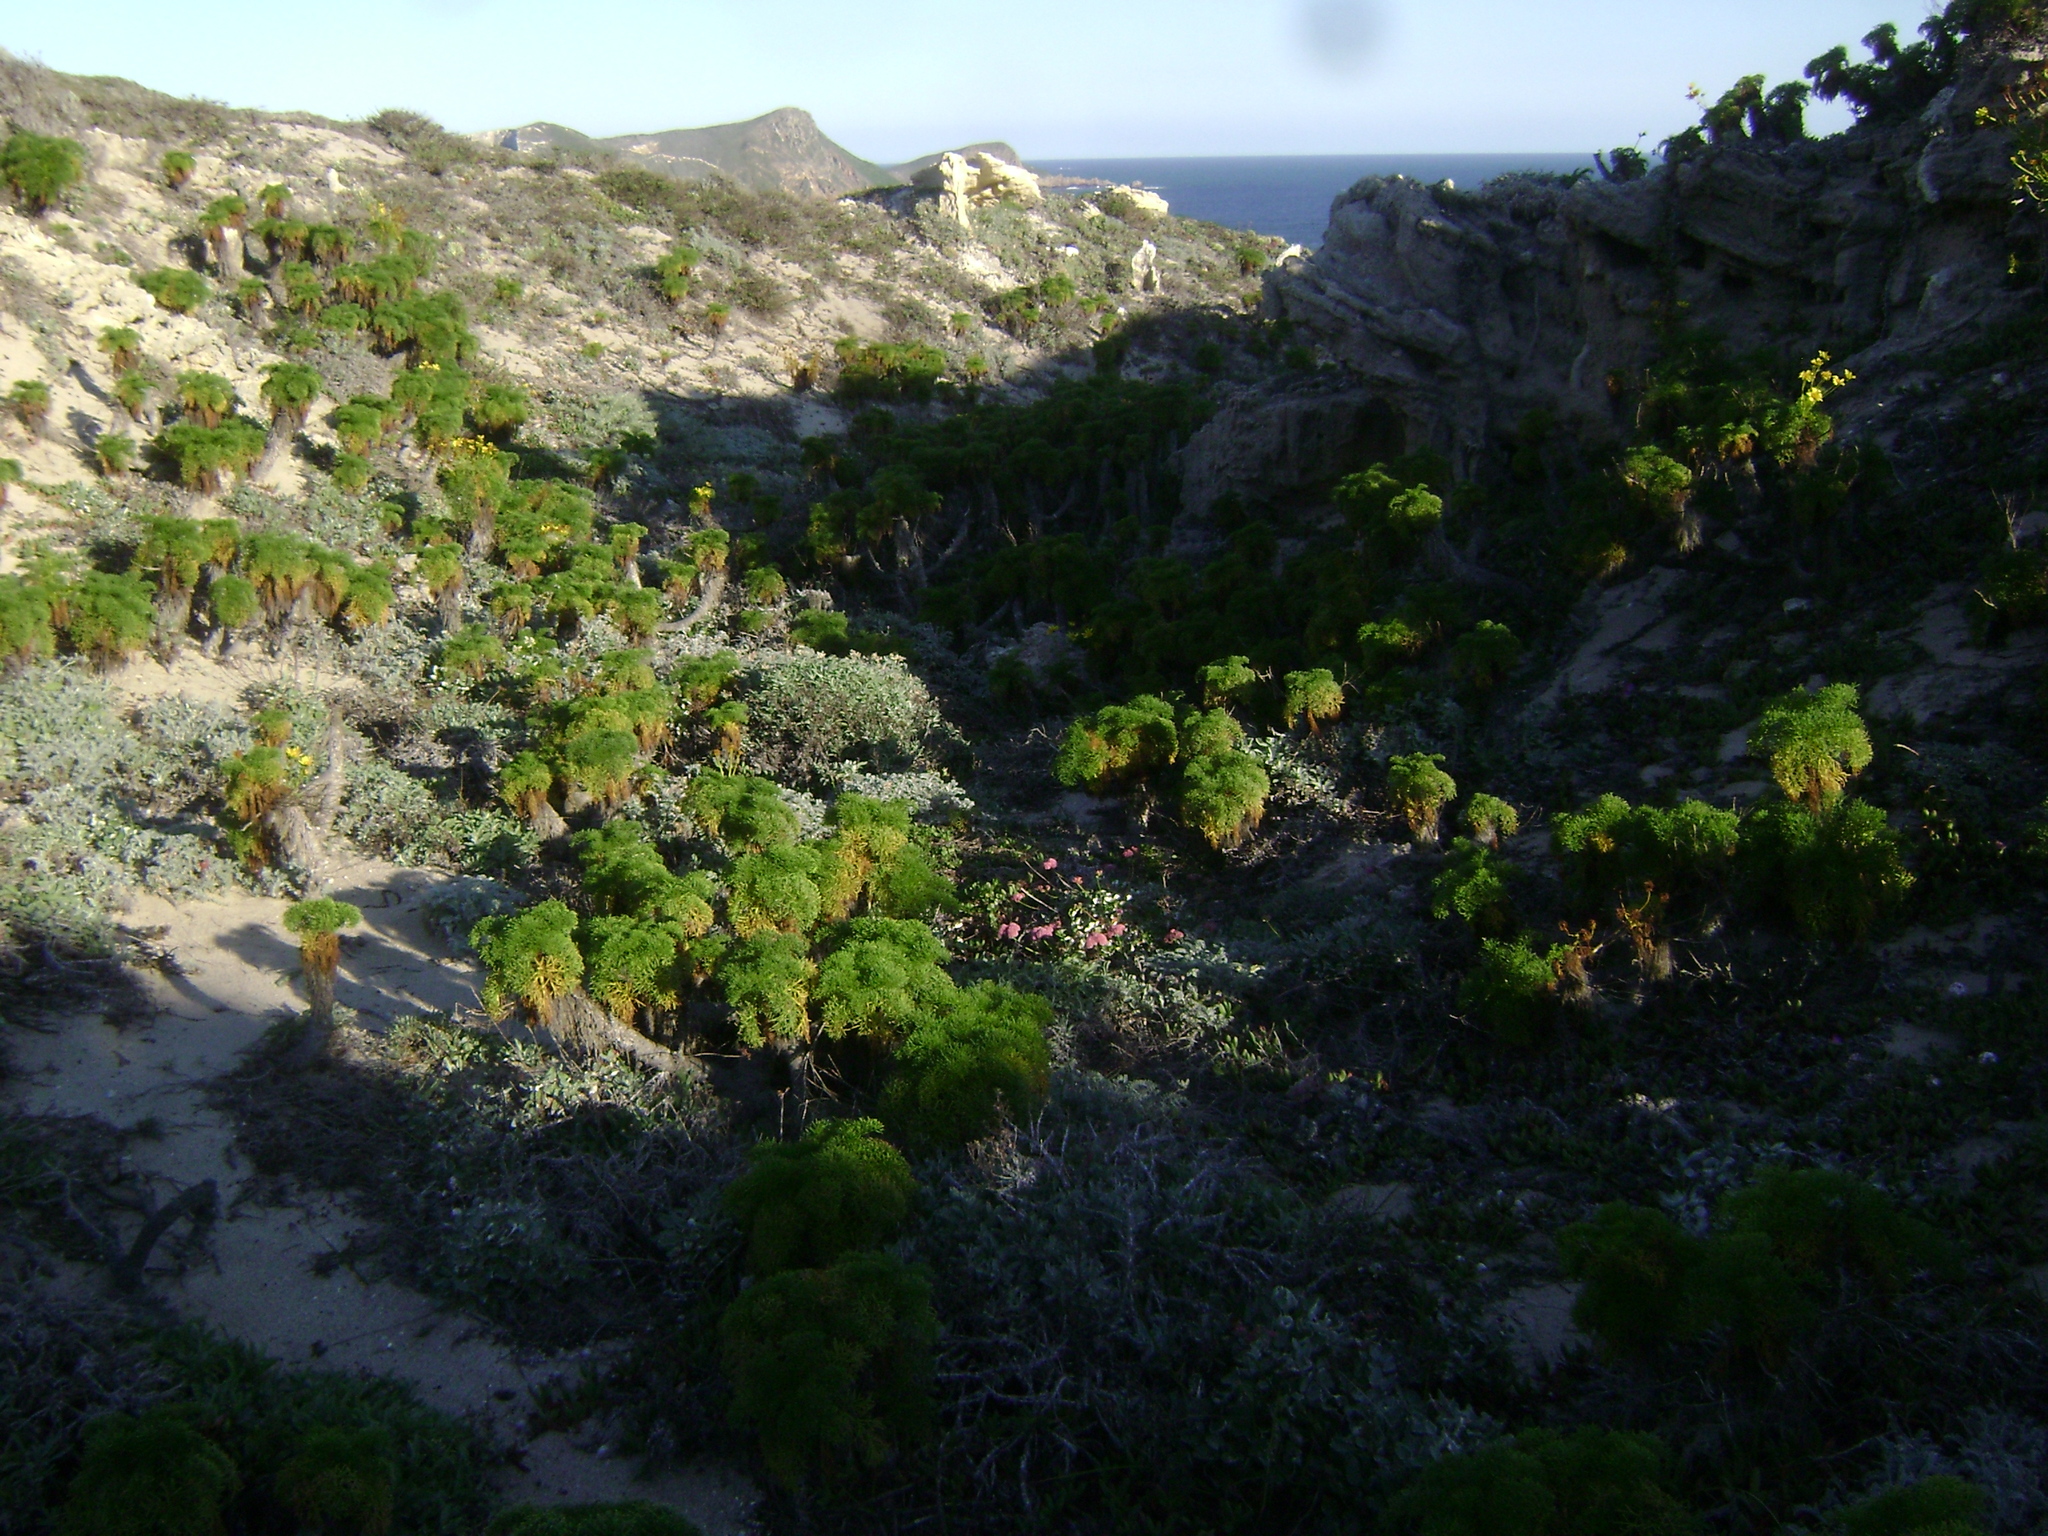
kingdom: Plantae
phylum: Tracheophyta
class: Magnoliopsida
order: Asterales
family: Asteraceae
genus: Coreopsis
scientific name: Coreopsis gigantea
